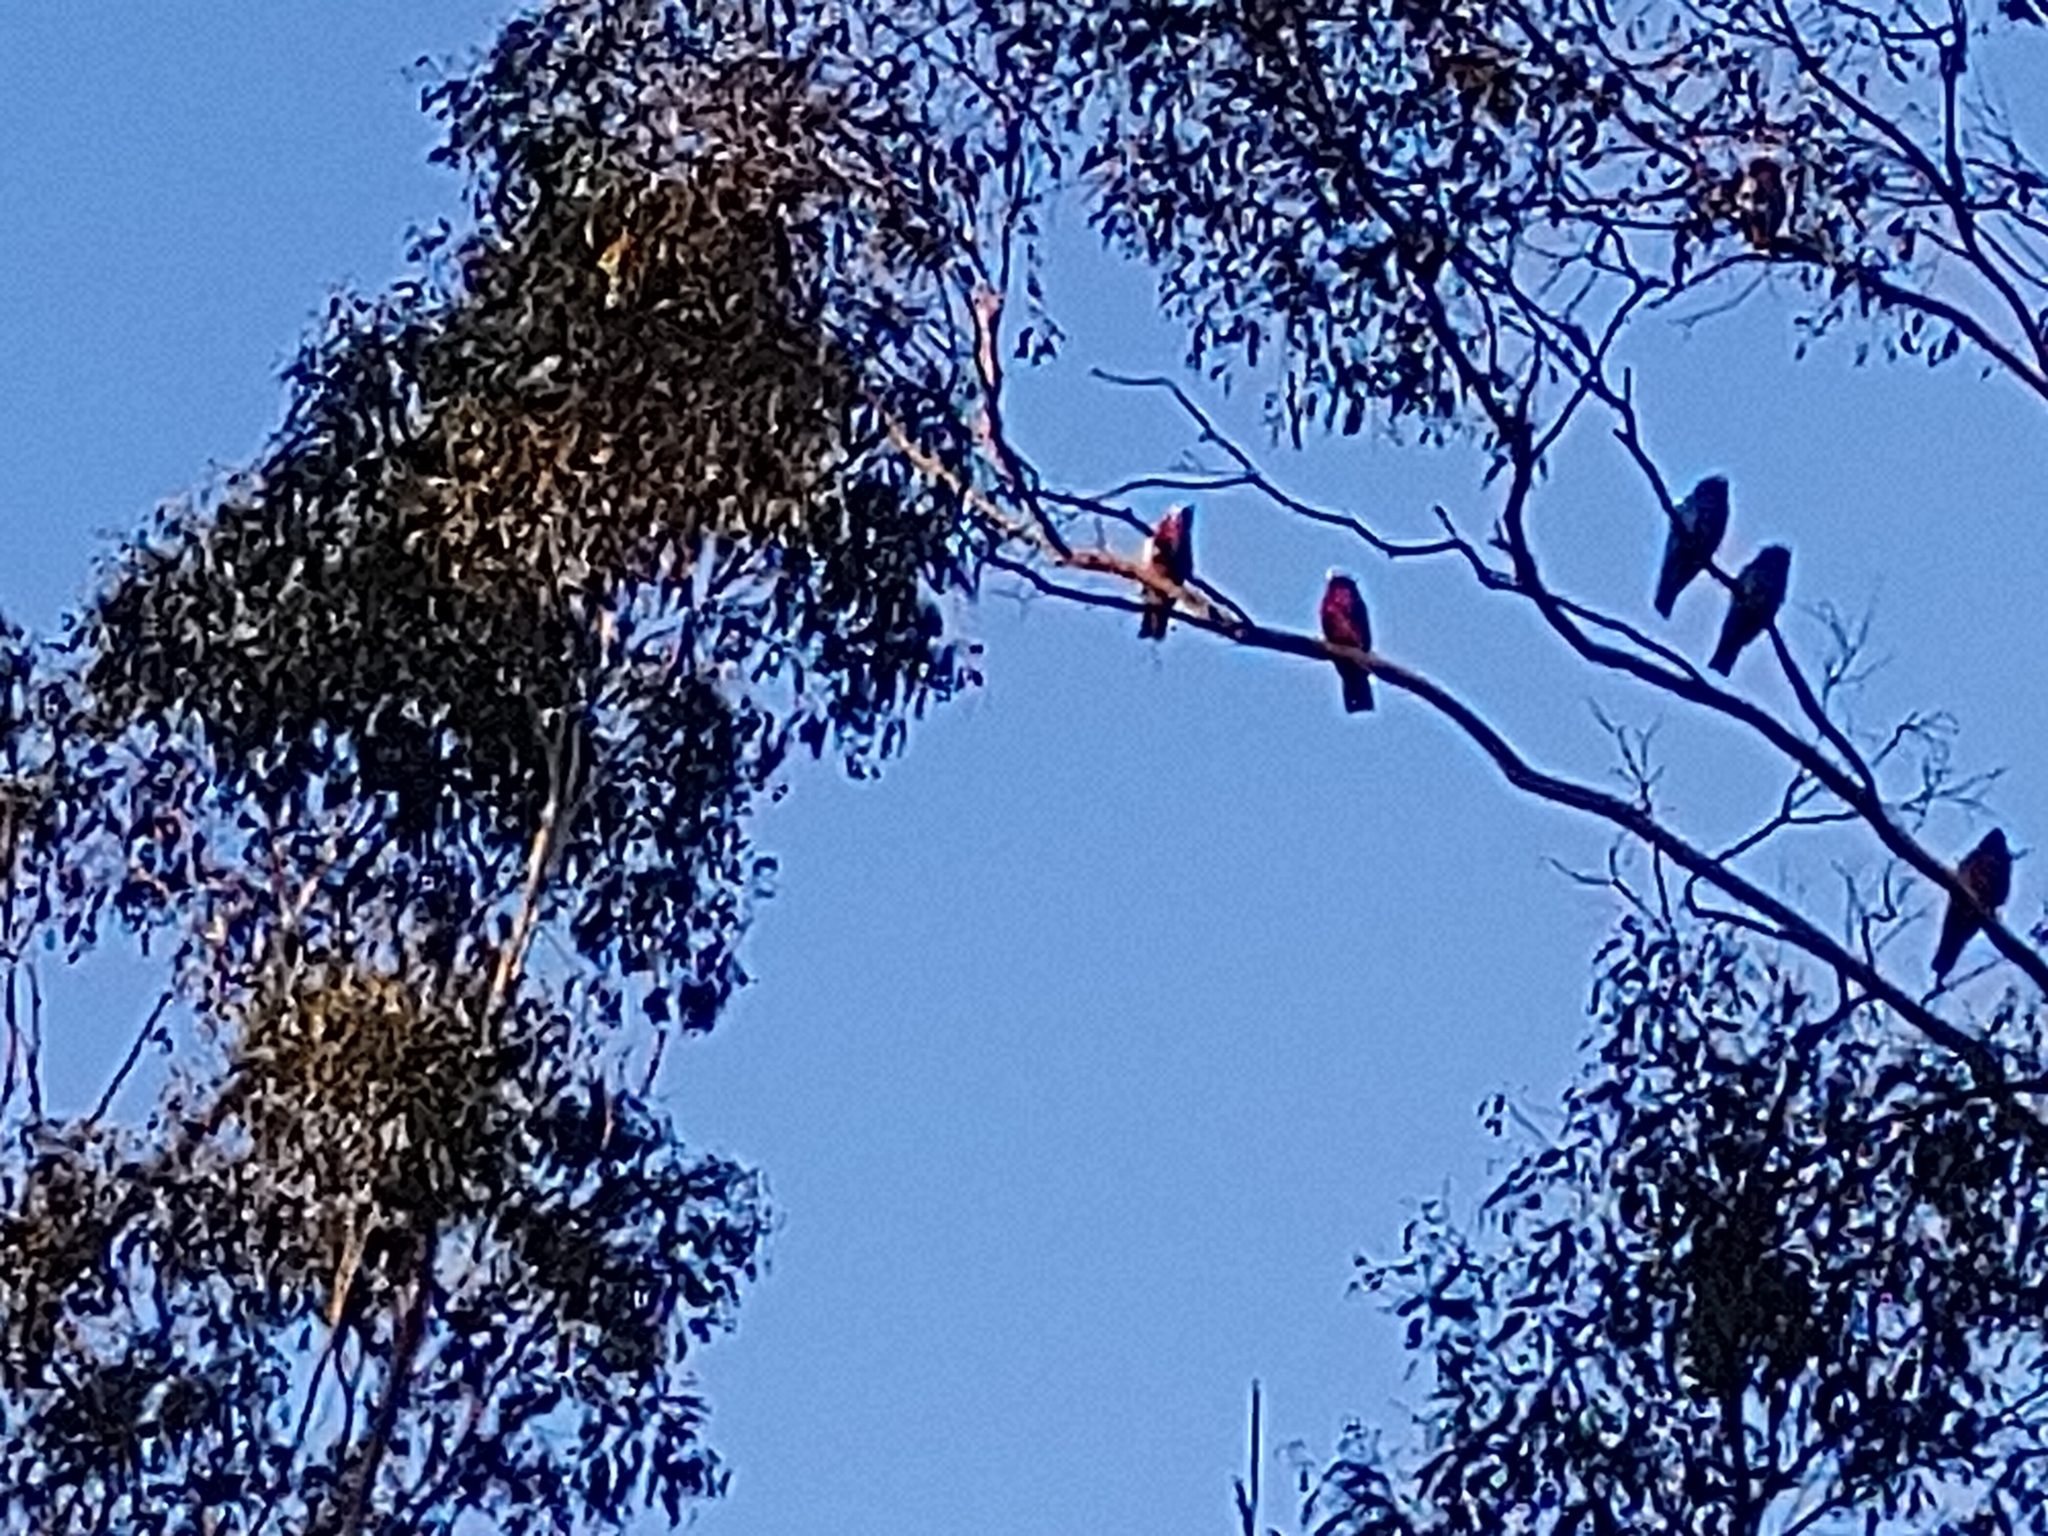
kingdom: Animalia
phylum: Chordata
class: Aves
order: Psittaciformes
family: Psittacidae
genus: Eolophus
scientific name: Eolophus roseicapilla
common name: Galah
